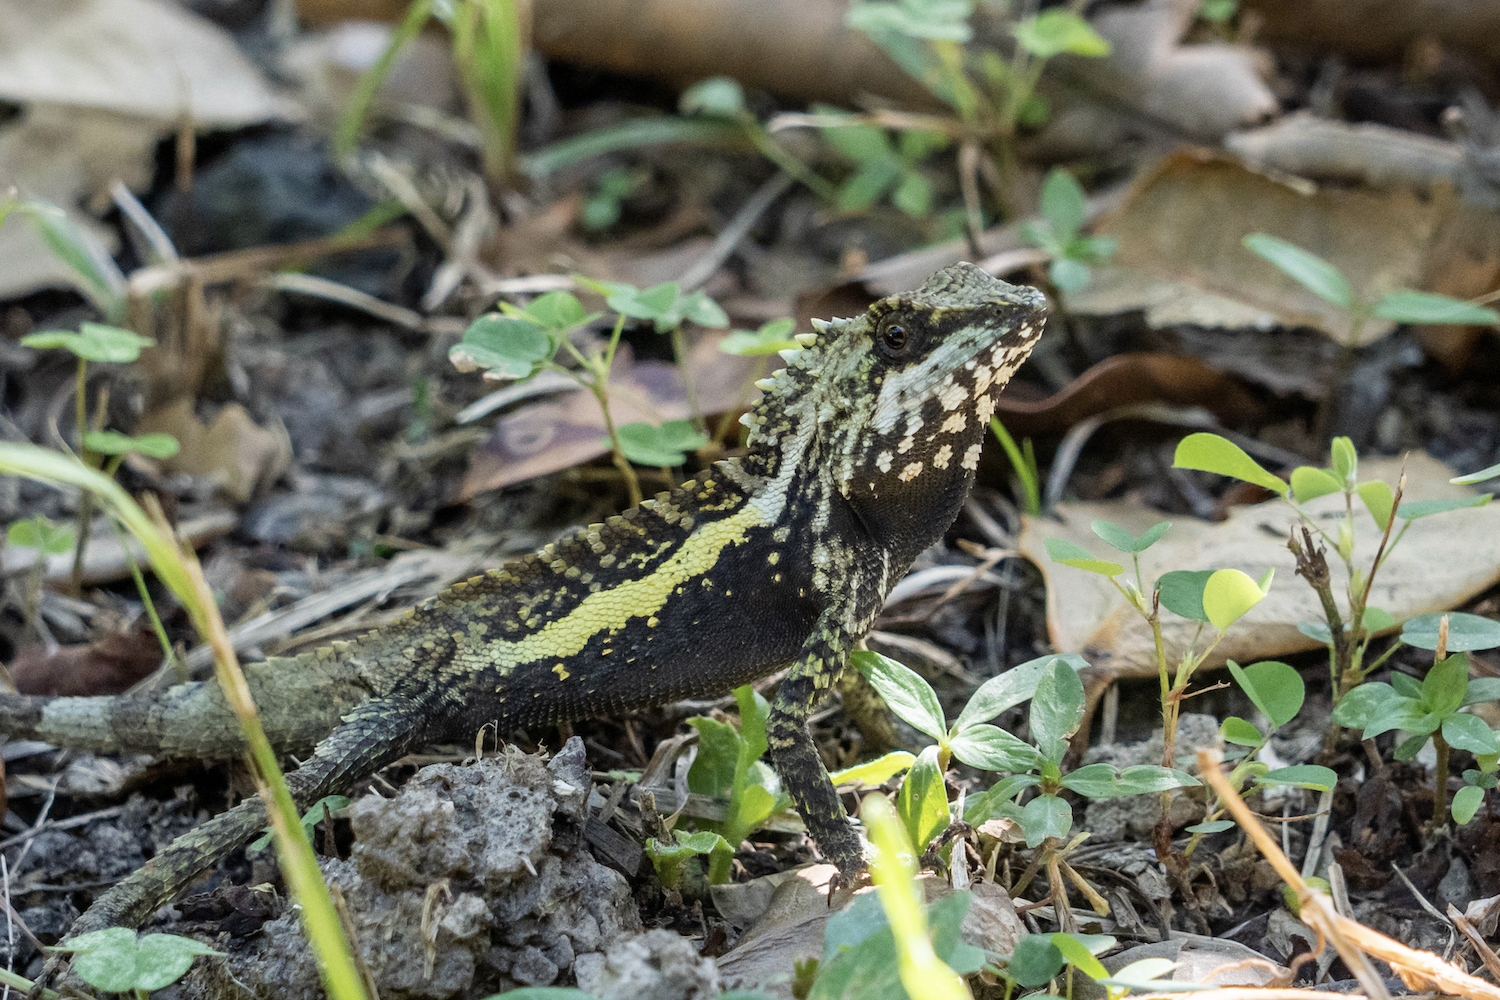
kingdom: Animalia
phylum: Chordata
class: Squamata
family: Agamidae
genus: Diploderma
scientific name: Diploderma swinhonis
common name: Taiwan japalure
